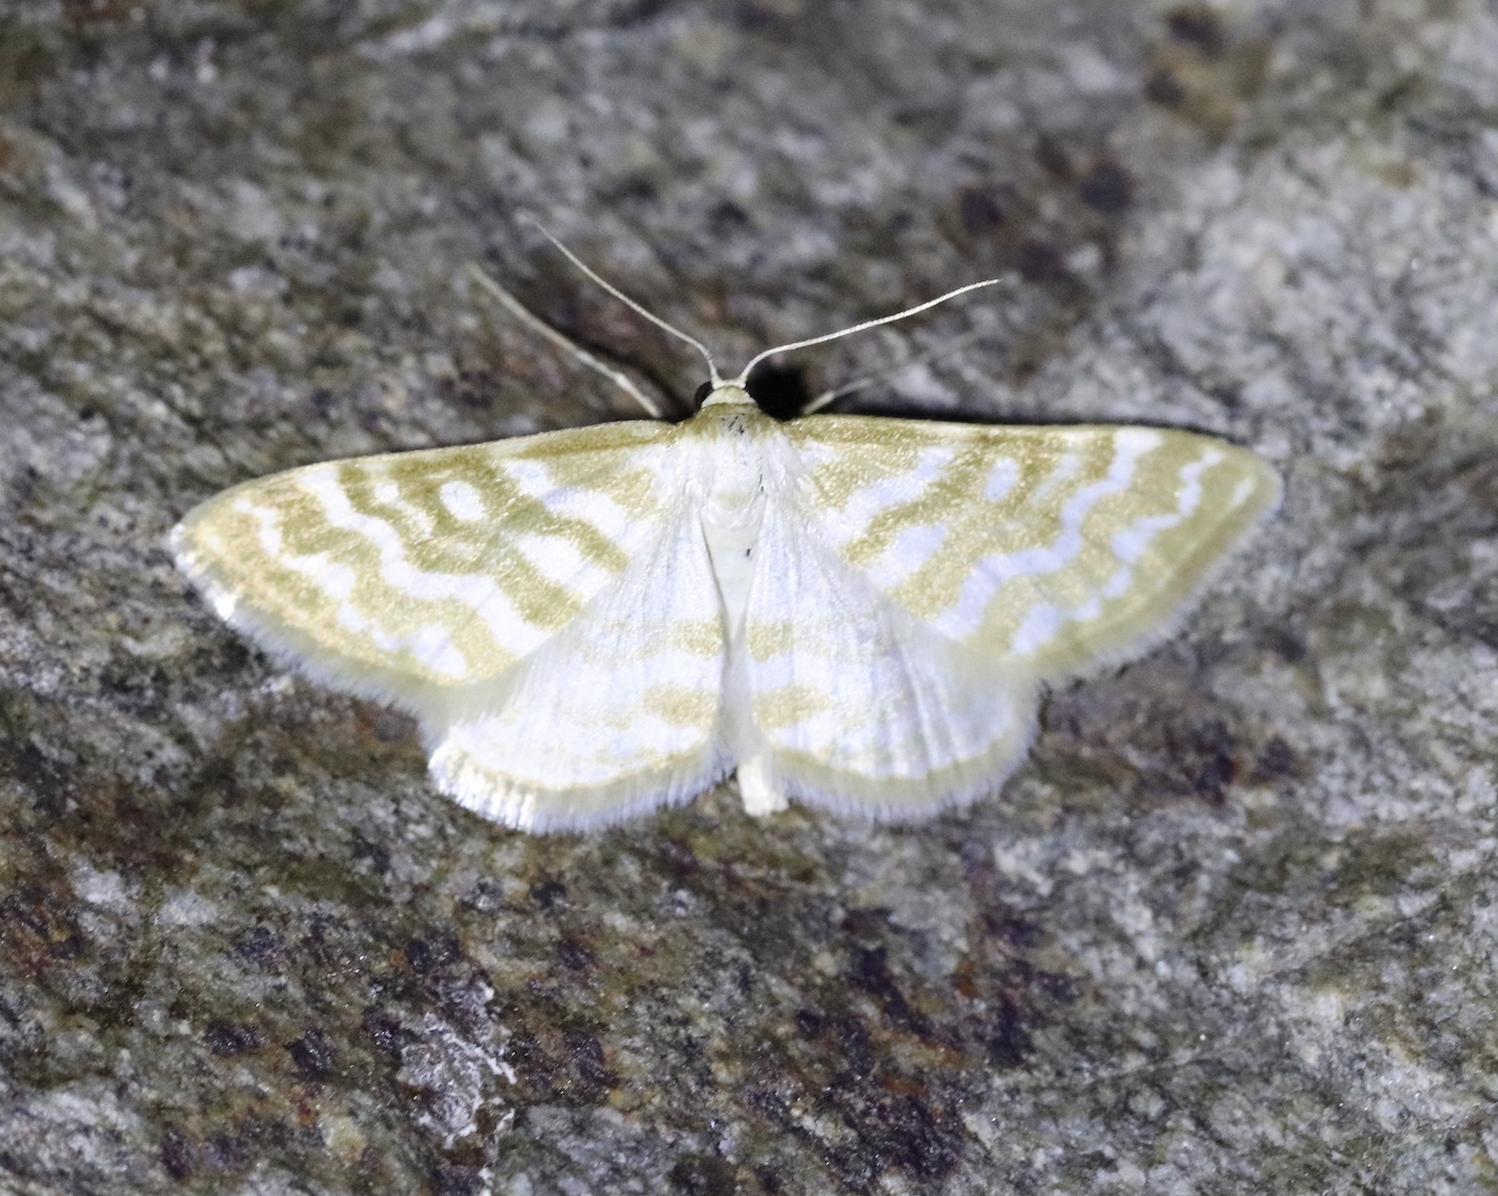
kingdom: Animalia
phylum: Arthropoda
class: Insecta
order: Lepidoptera
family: Geometridae
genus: Idaea
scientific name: Idaea sericeata
